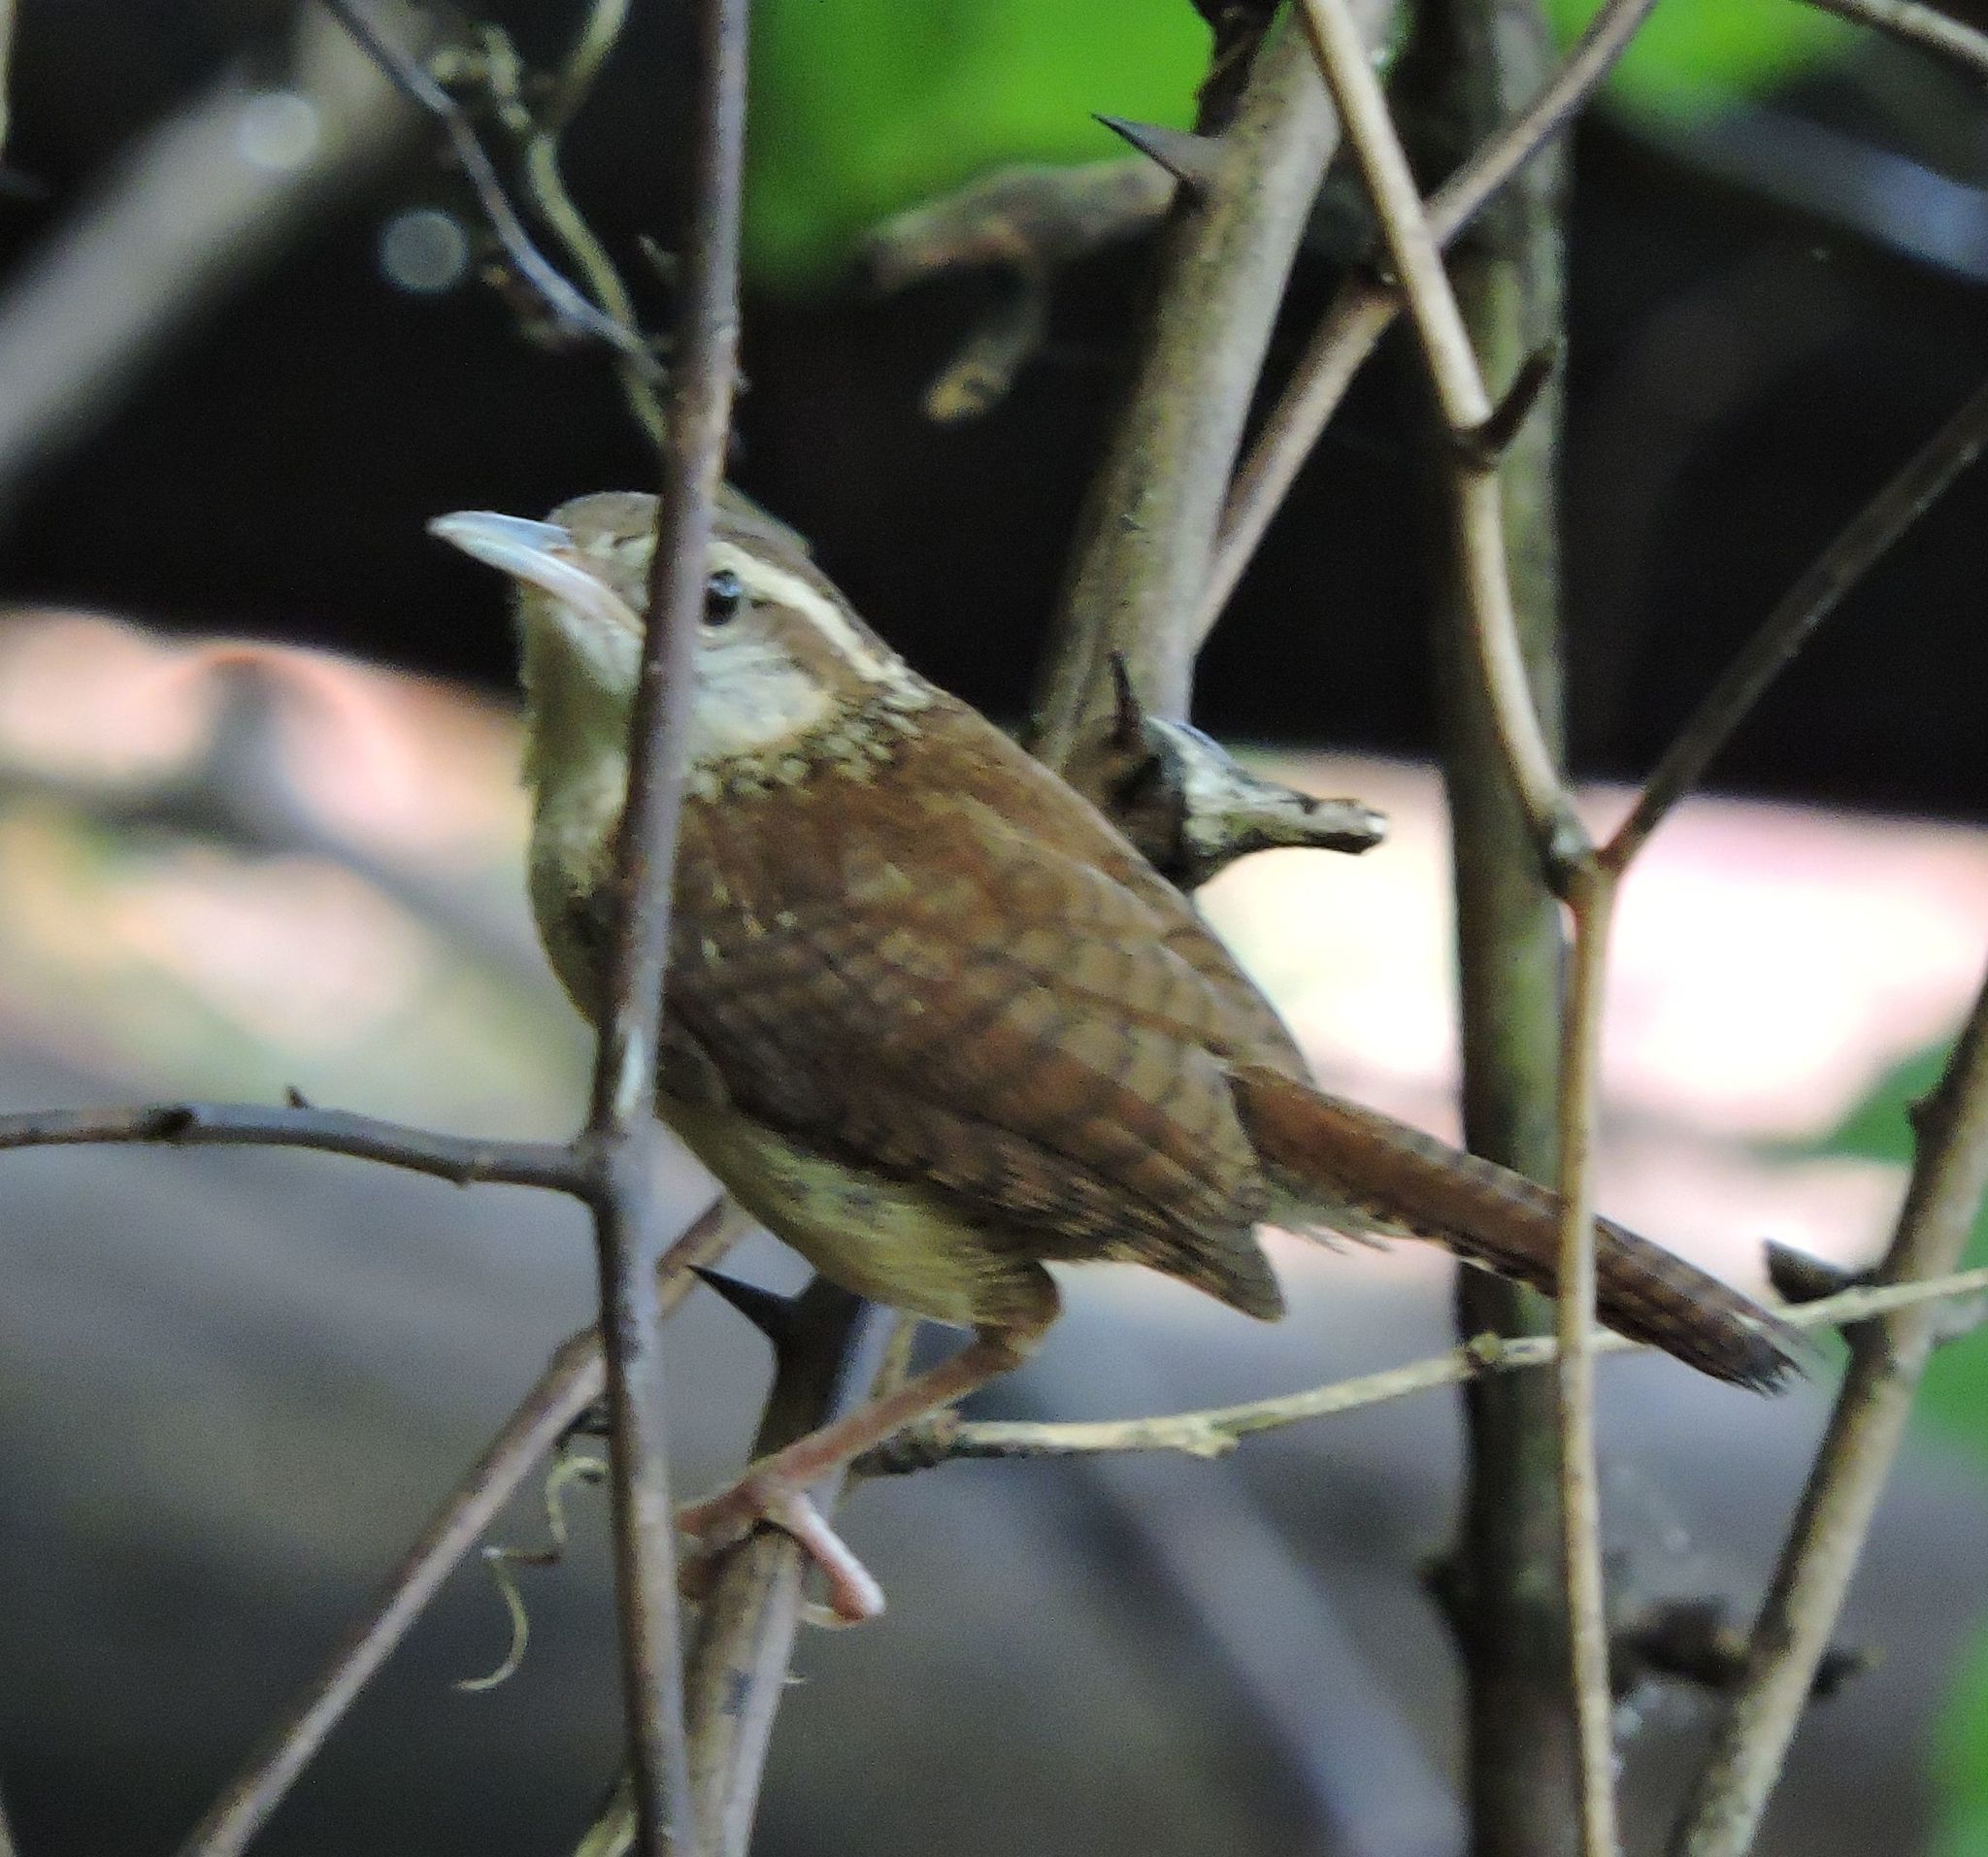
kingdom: Animalia
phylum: Chordata
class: Aves
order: Passeriformes
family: Troglodytidae
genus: Thryothorus
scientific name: Thryothorus ludovicianus
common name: Carolina wren
